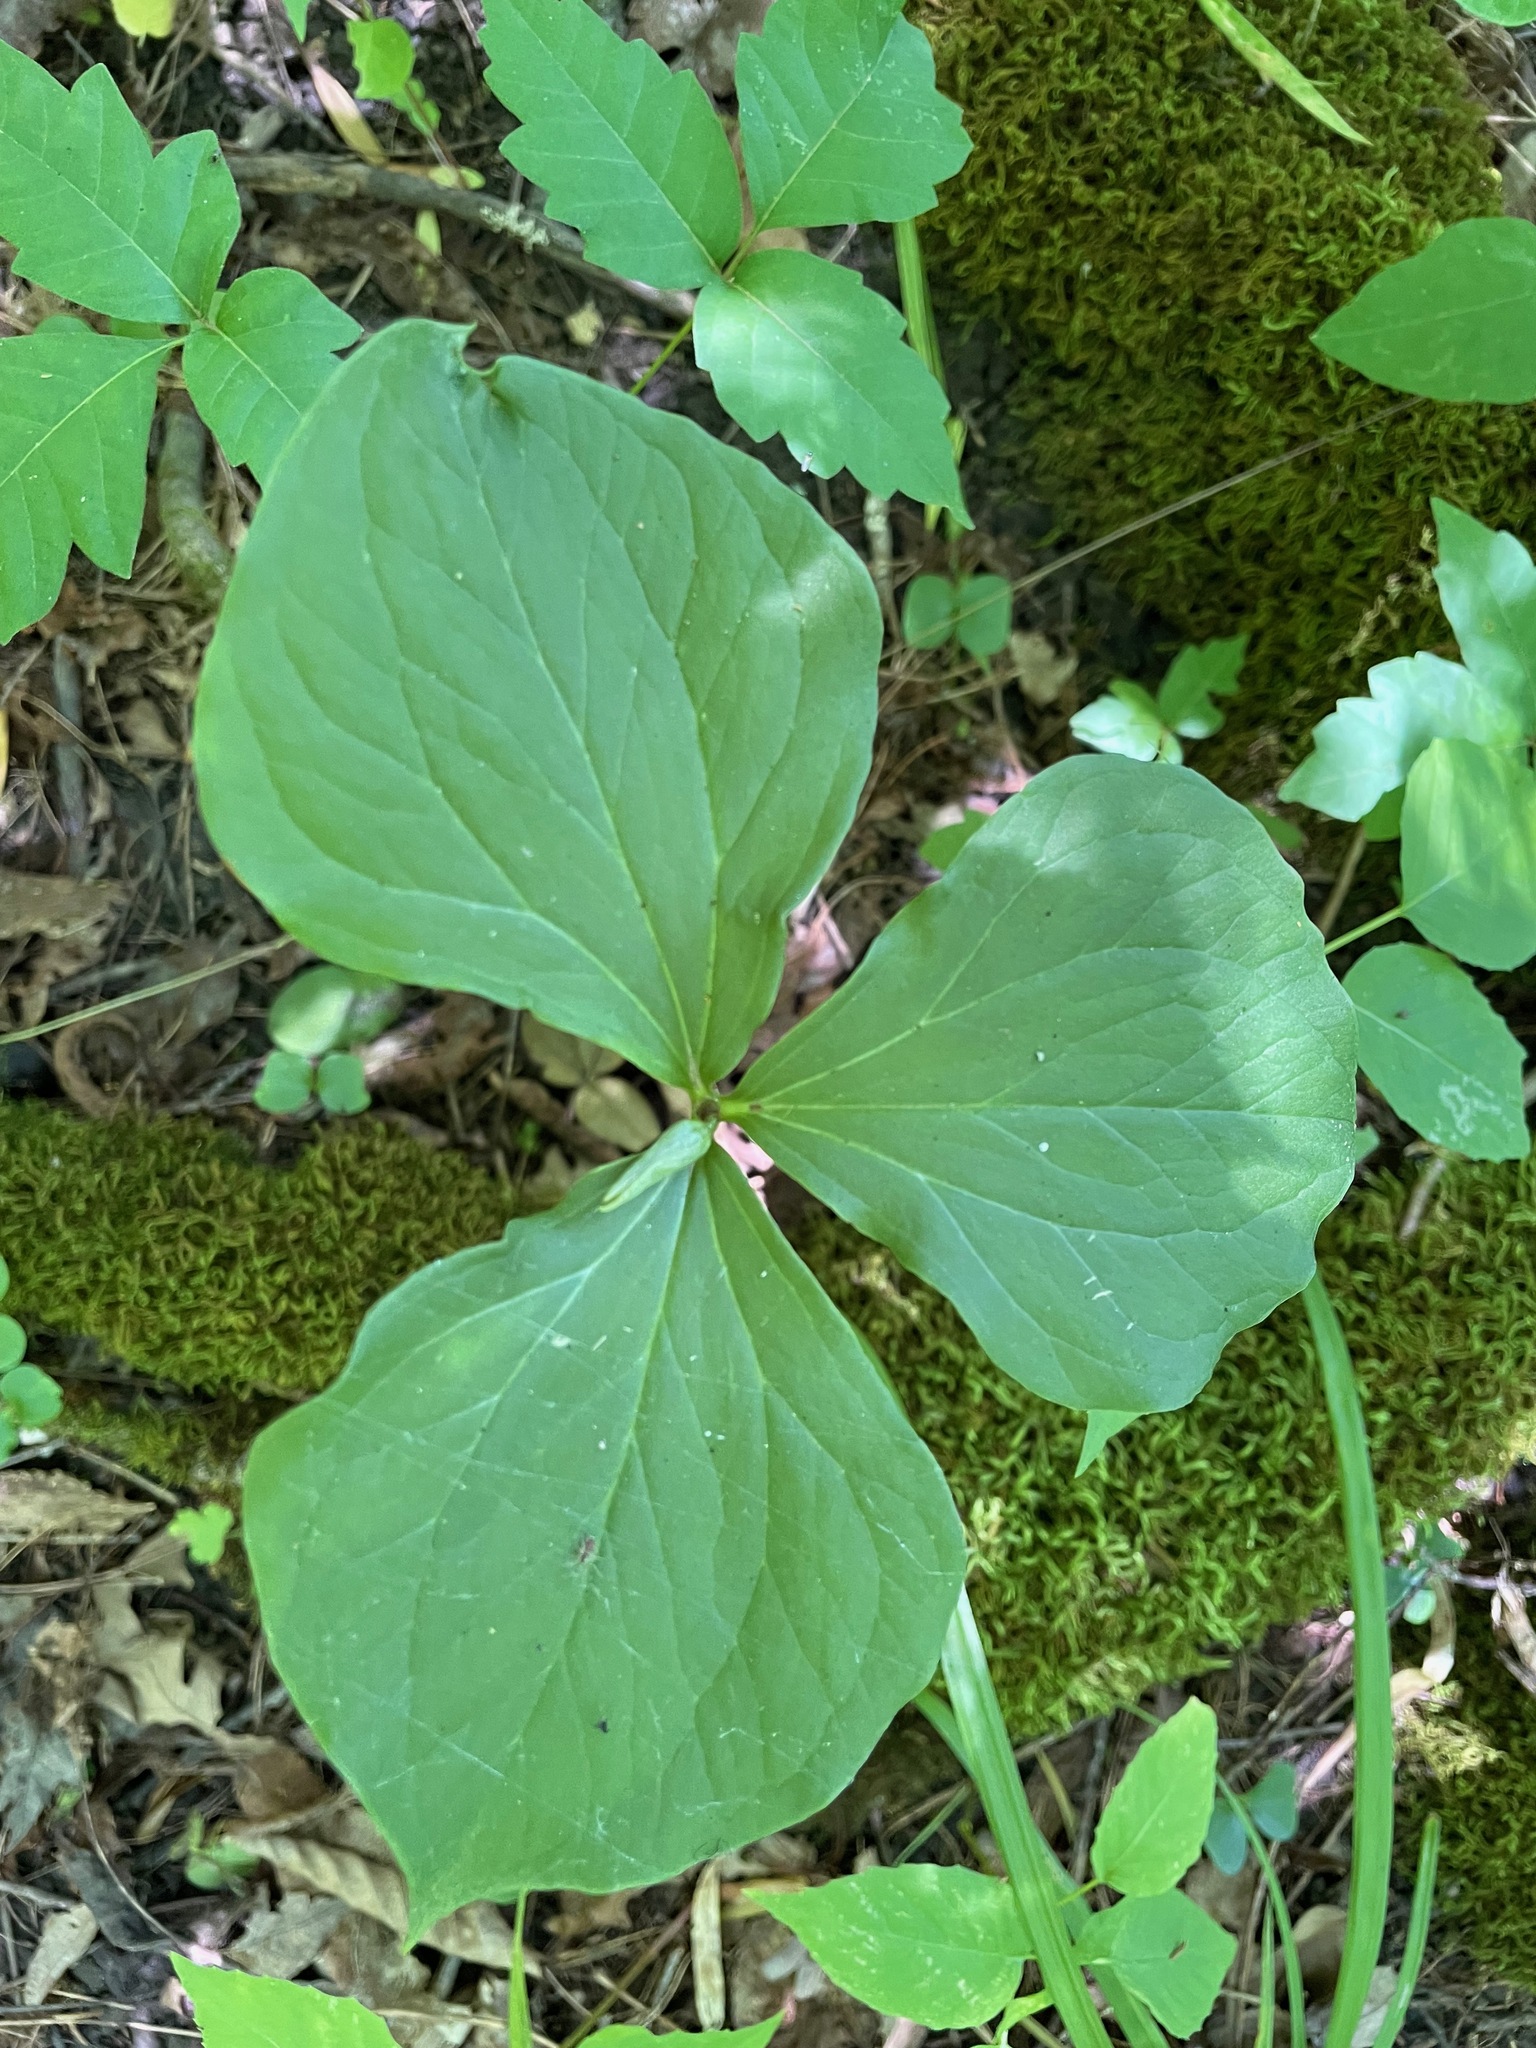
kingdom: Plantae
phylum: Tracheophyta
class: Liliopsida
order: Liliales
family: Melanthiaceae
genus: Trillium
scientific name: Trillium cernuum
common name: Nodding trillium
